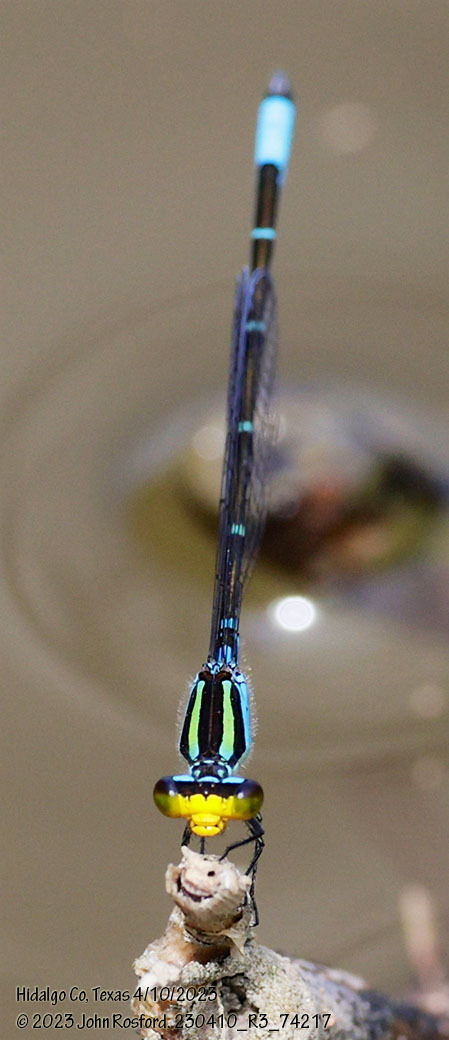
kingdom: Animalia
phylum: Arthropoda
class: Insecta
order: Odonata
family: Coenagrionidae
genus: Neoerythromma
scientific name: Neoerythromma cultellatum
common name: Caribbean yellowface
